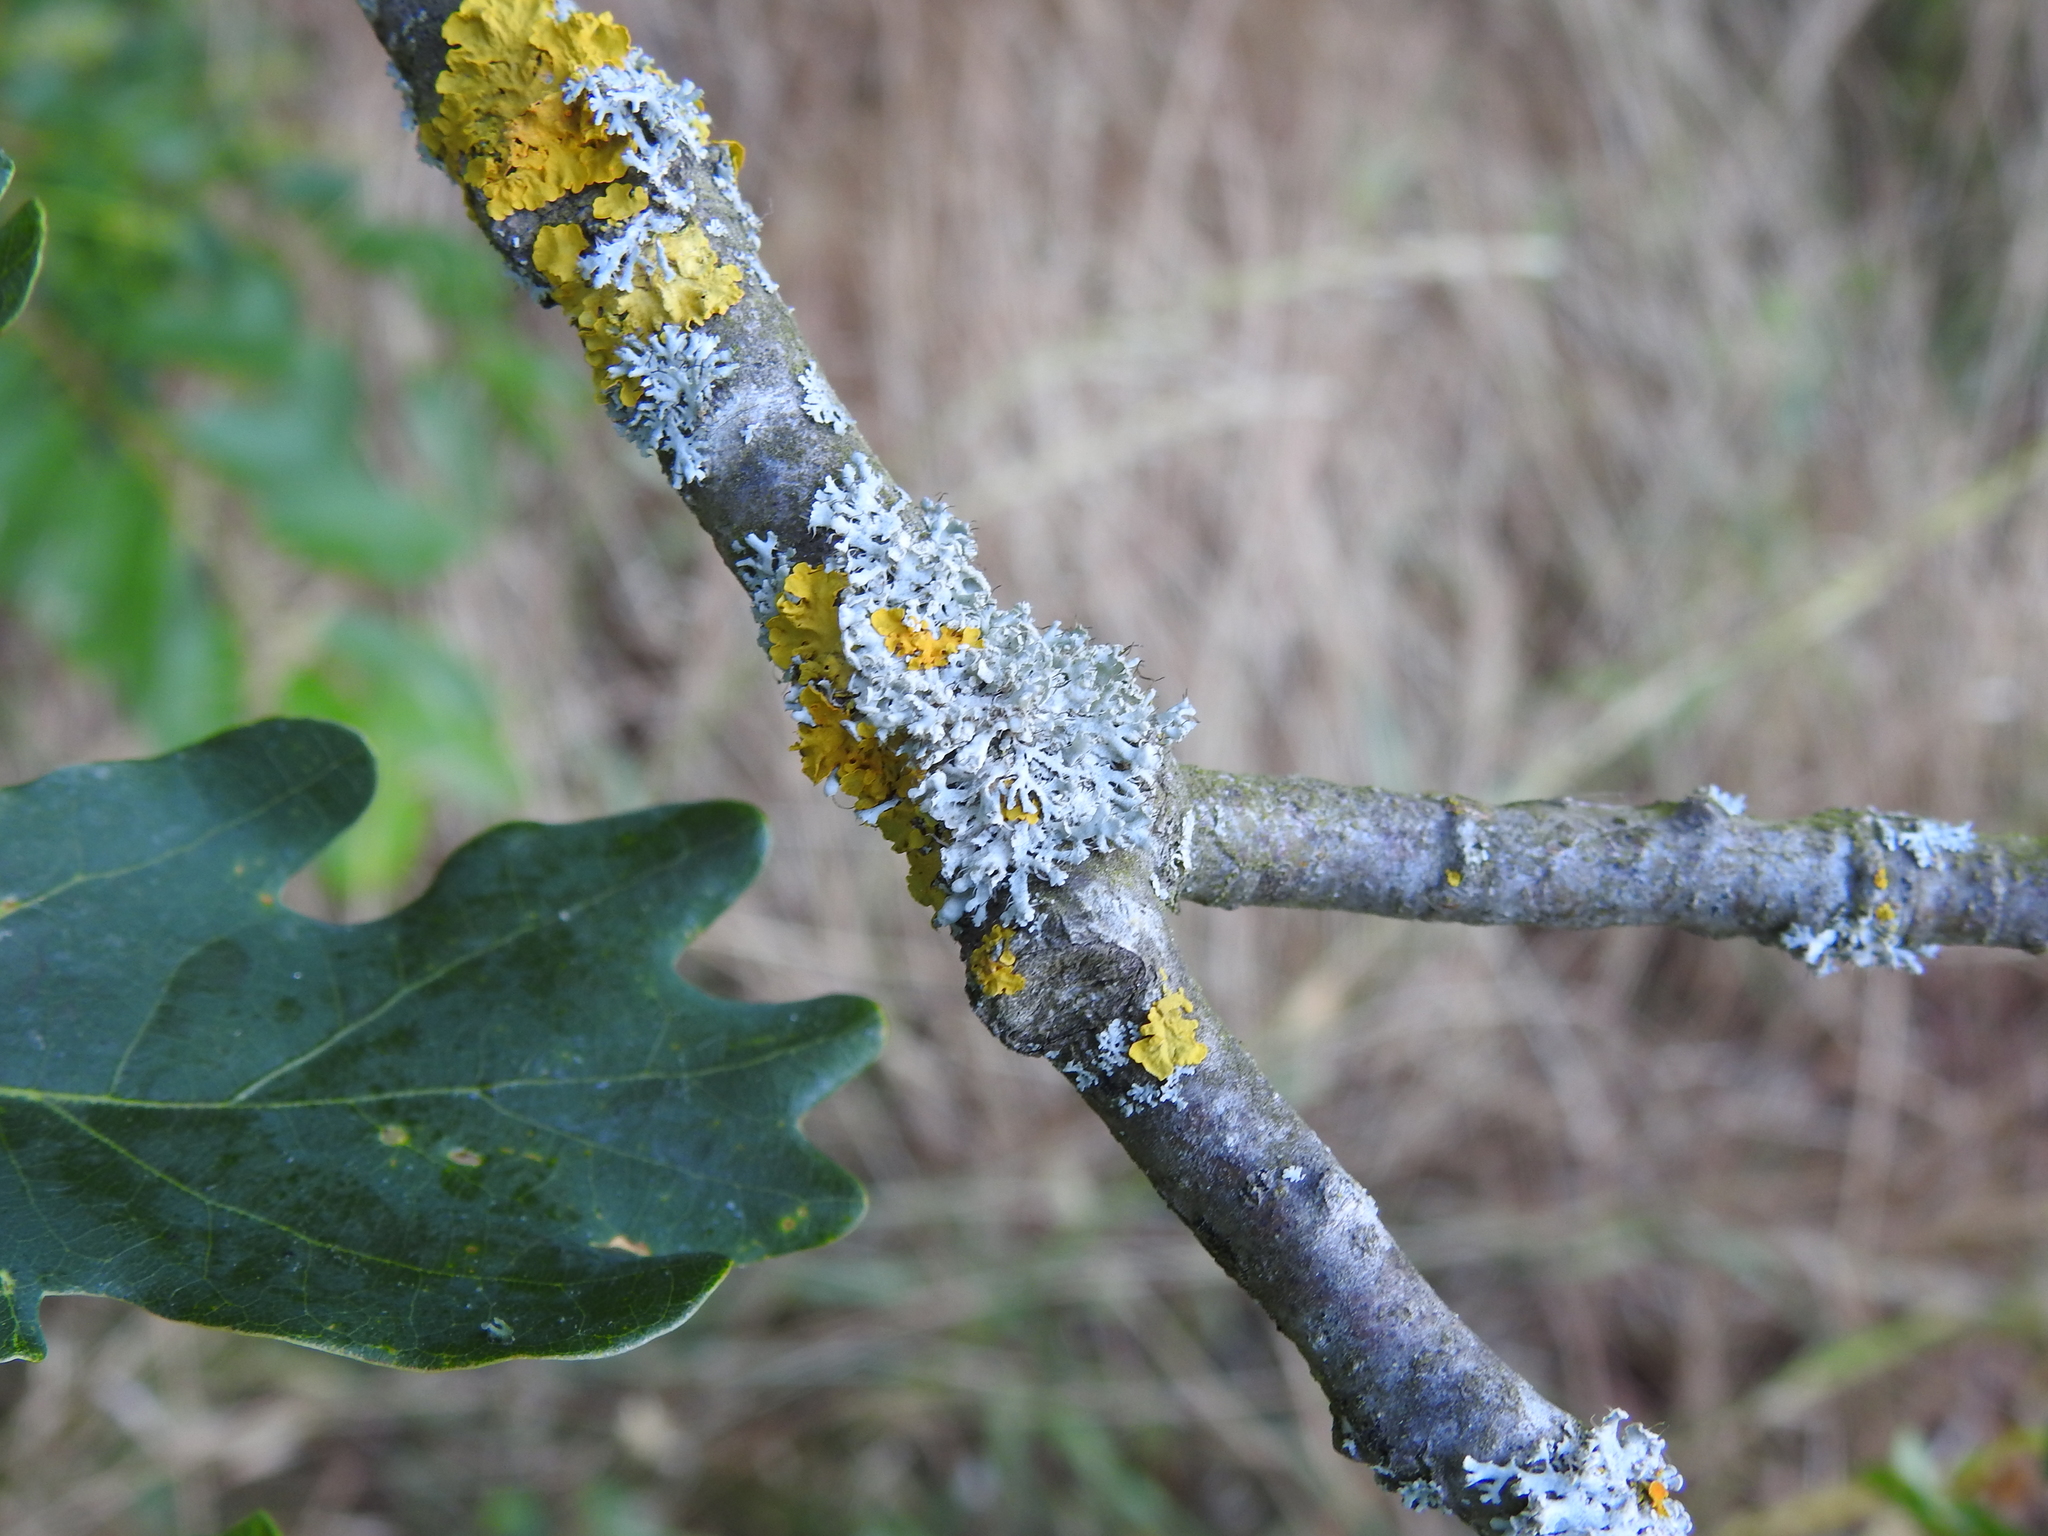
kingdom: Fungi
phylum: Ascomycota
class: Lecanoromycetes
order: Caliciales
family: Physciaceae
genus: Physcia
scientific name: Physcia adscendens
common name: Hooded rosette lichen
